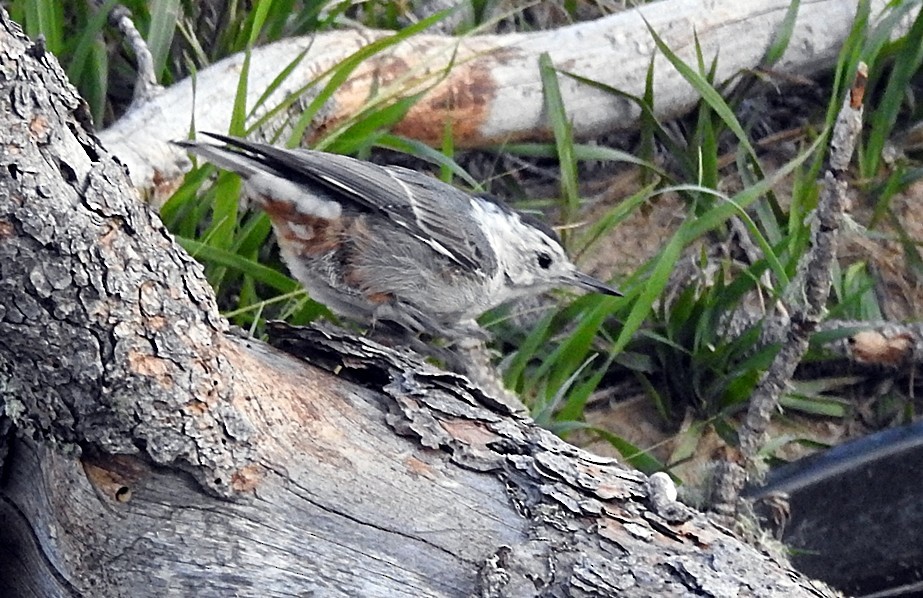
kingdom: Animalia
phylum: Chordata
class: Aves
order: Passeriformes
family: Sittidae
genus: Sitta
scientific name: Sitta carolinensis
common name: White-breasted nuthatch
